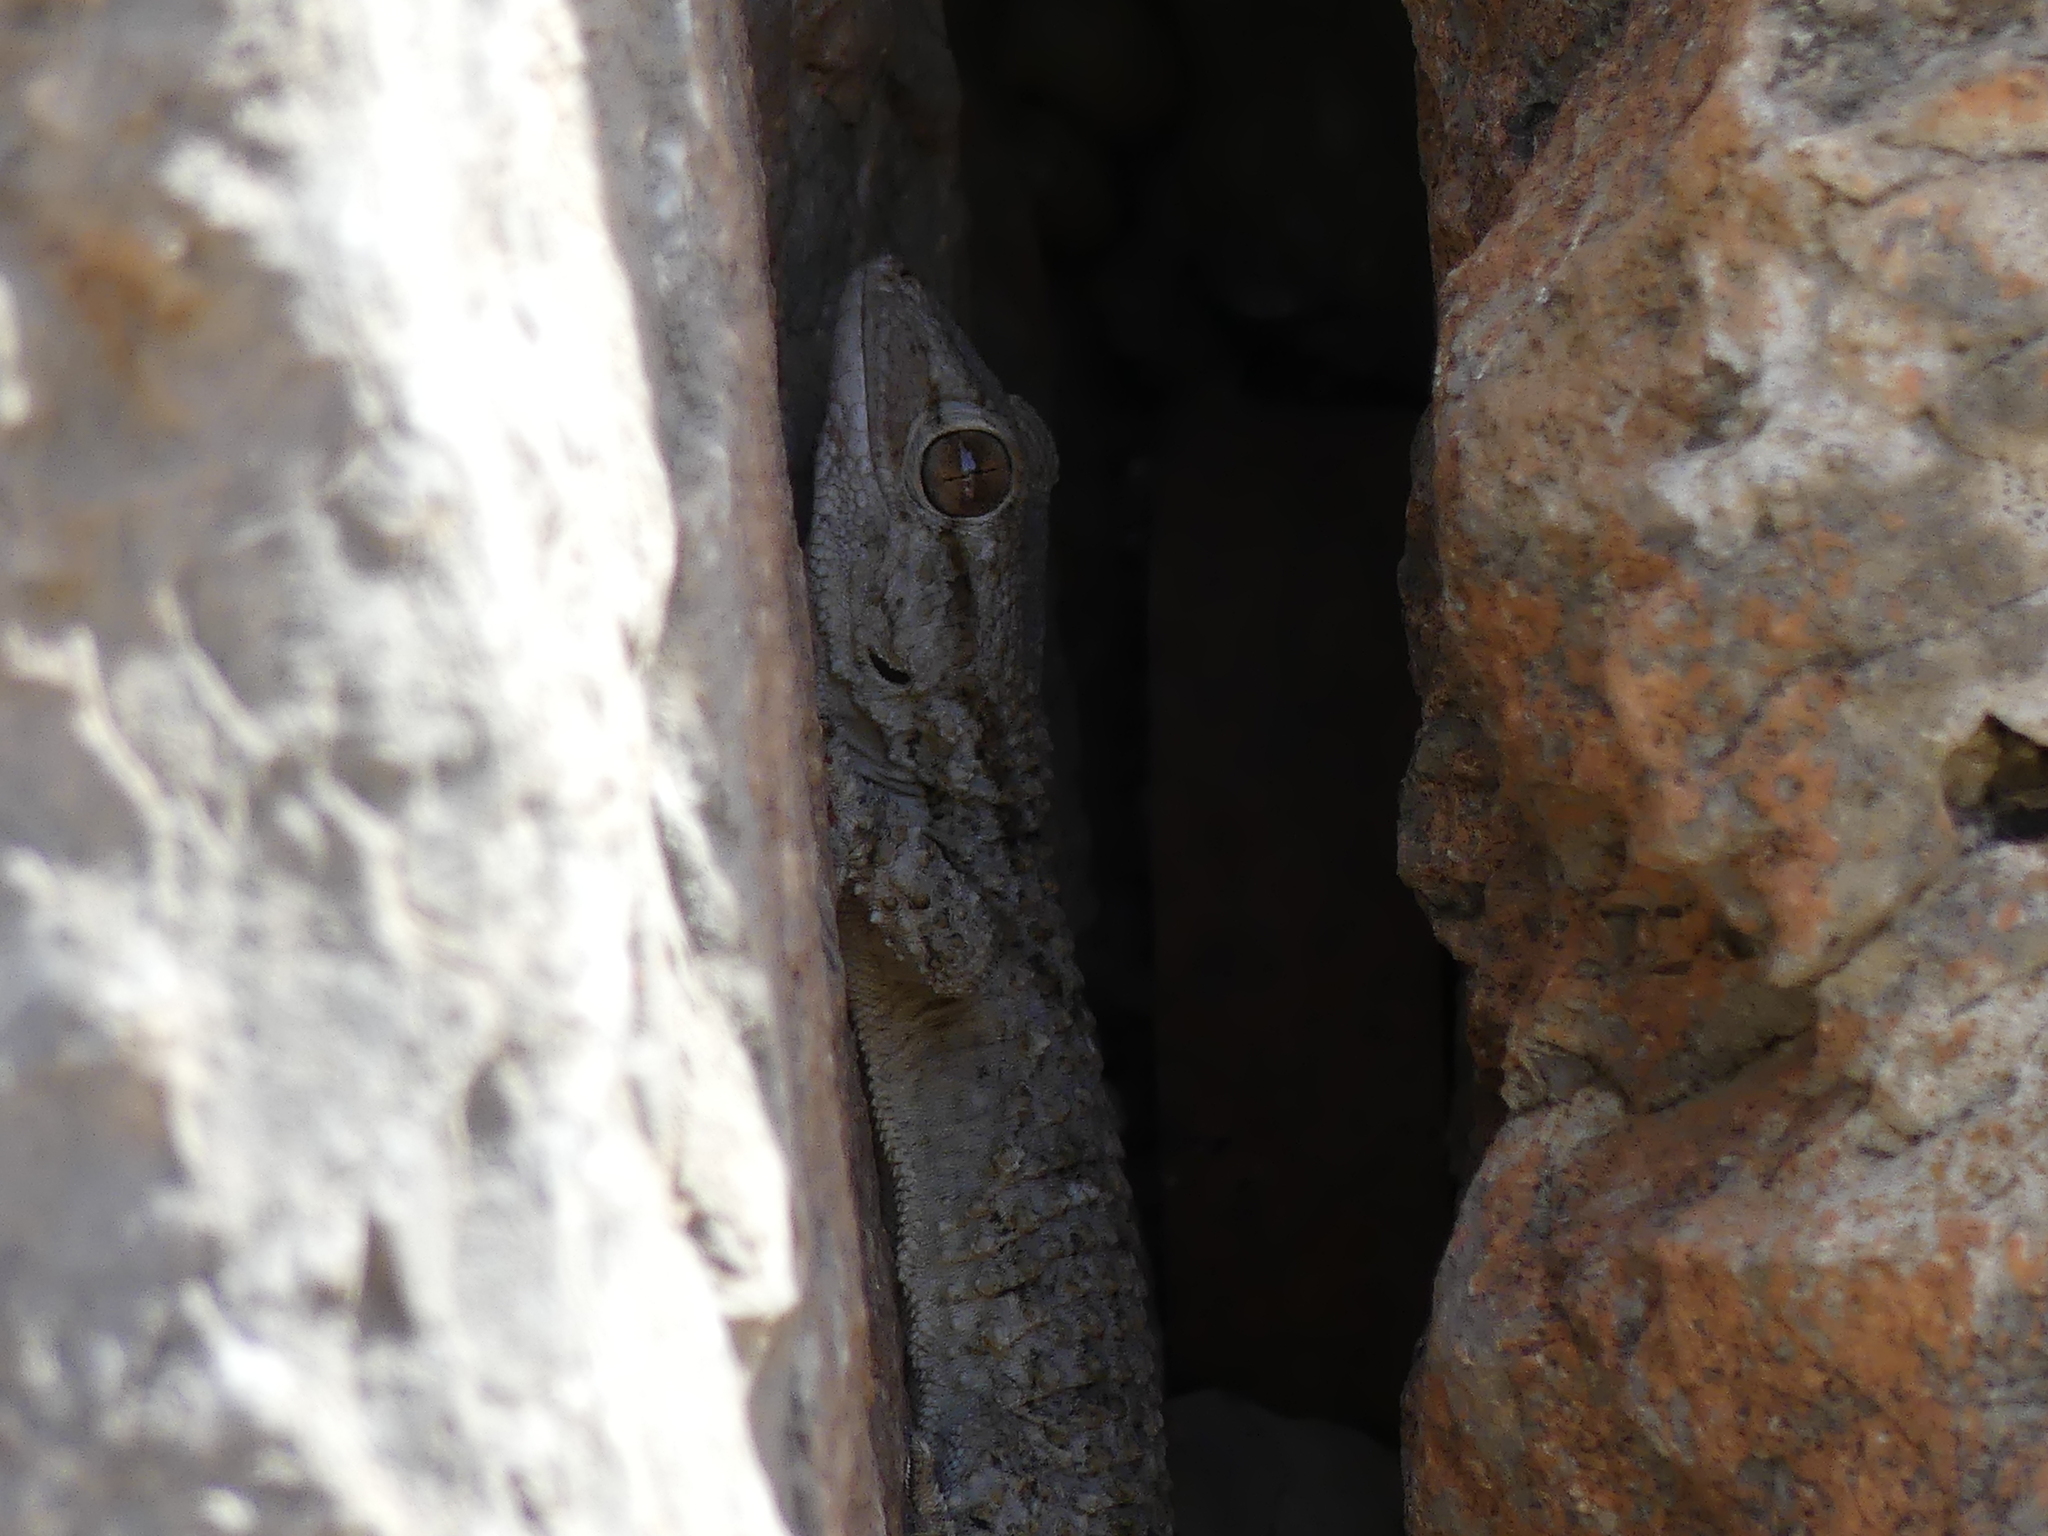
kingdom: Animalia
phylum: Chordata
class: Squamata
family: Phyllodactylidae
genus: Tarentola
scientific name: Tarentola mauritanica
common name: Moorish gecko
